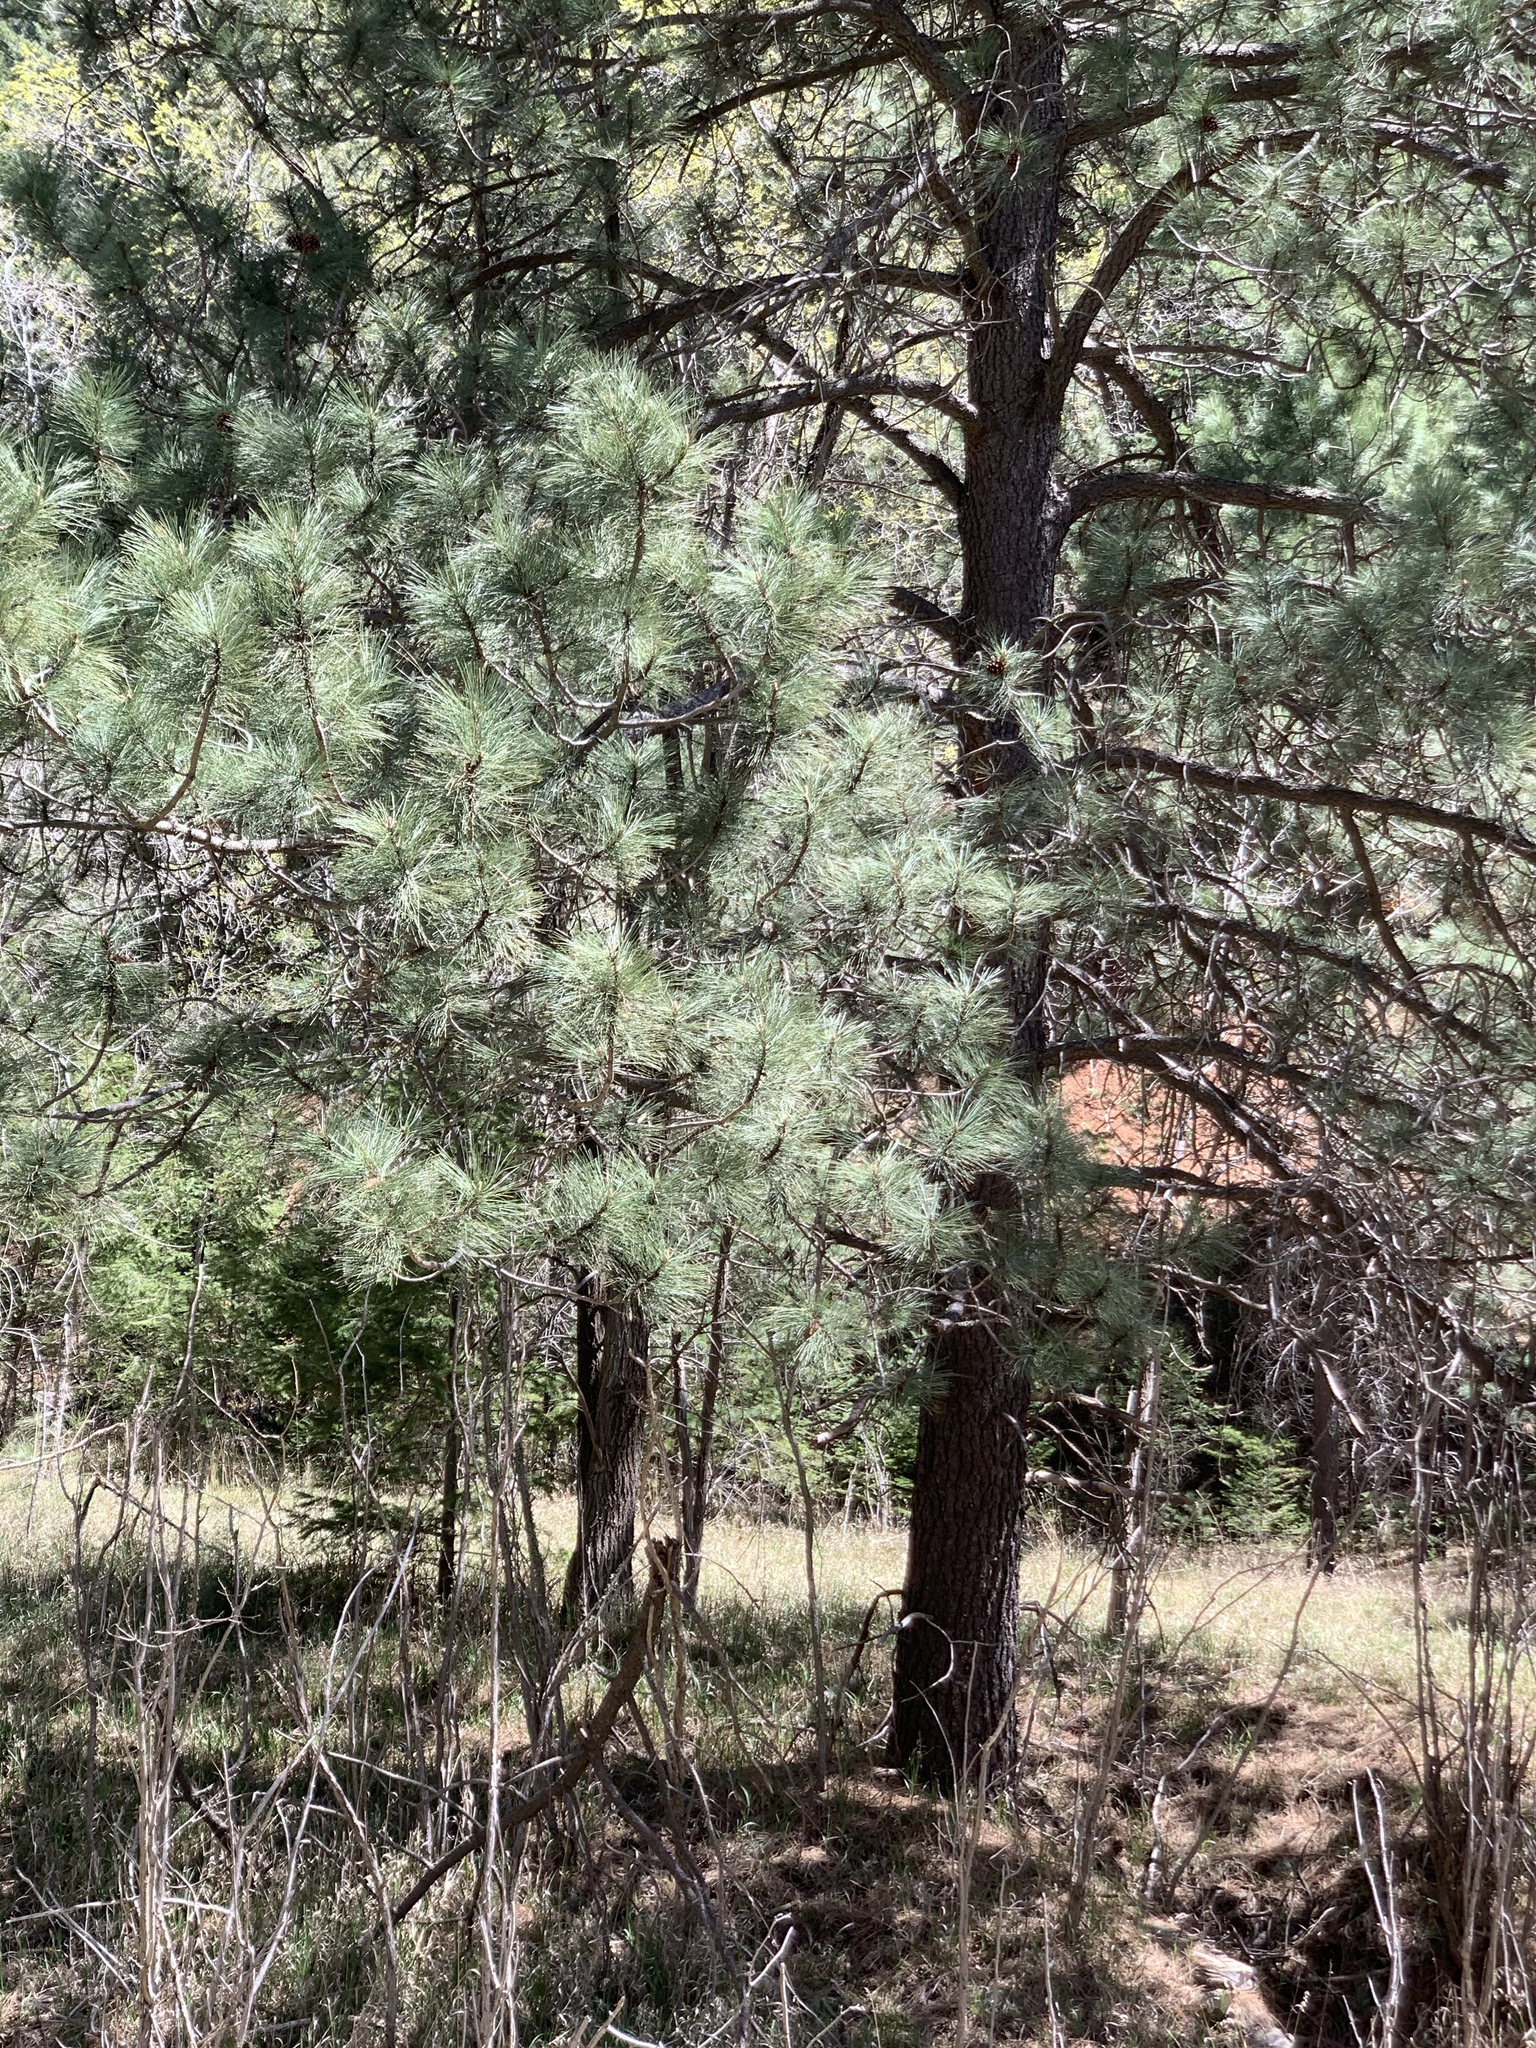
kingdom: Plantae
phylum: Tracheophyta
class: Pinopsida
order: Pinales
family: Pinaceae
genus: Pinus
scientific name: Pinus ponderosa
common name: Western yellow-pine
